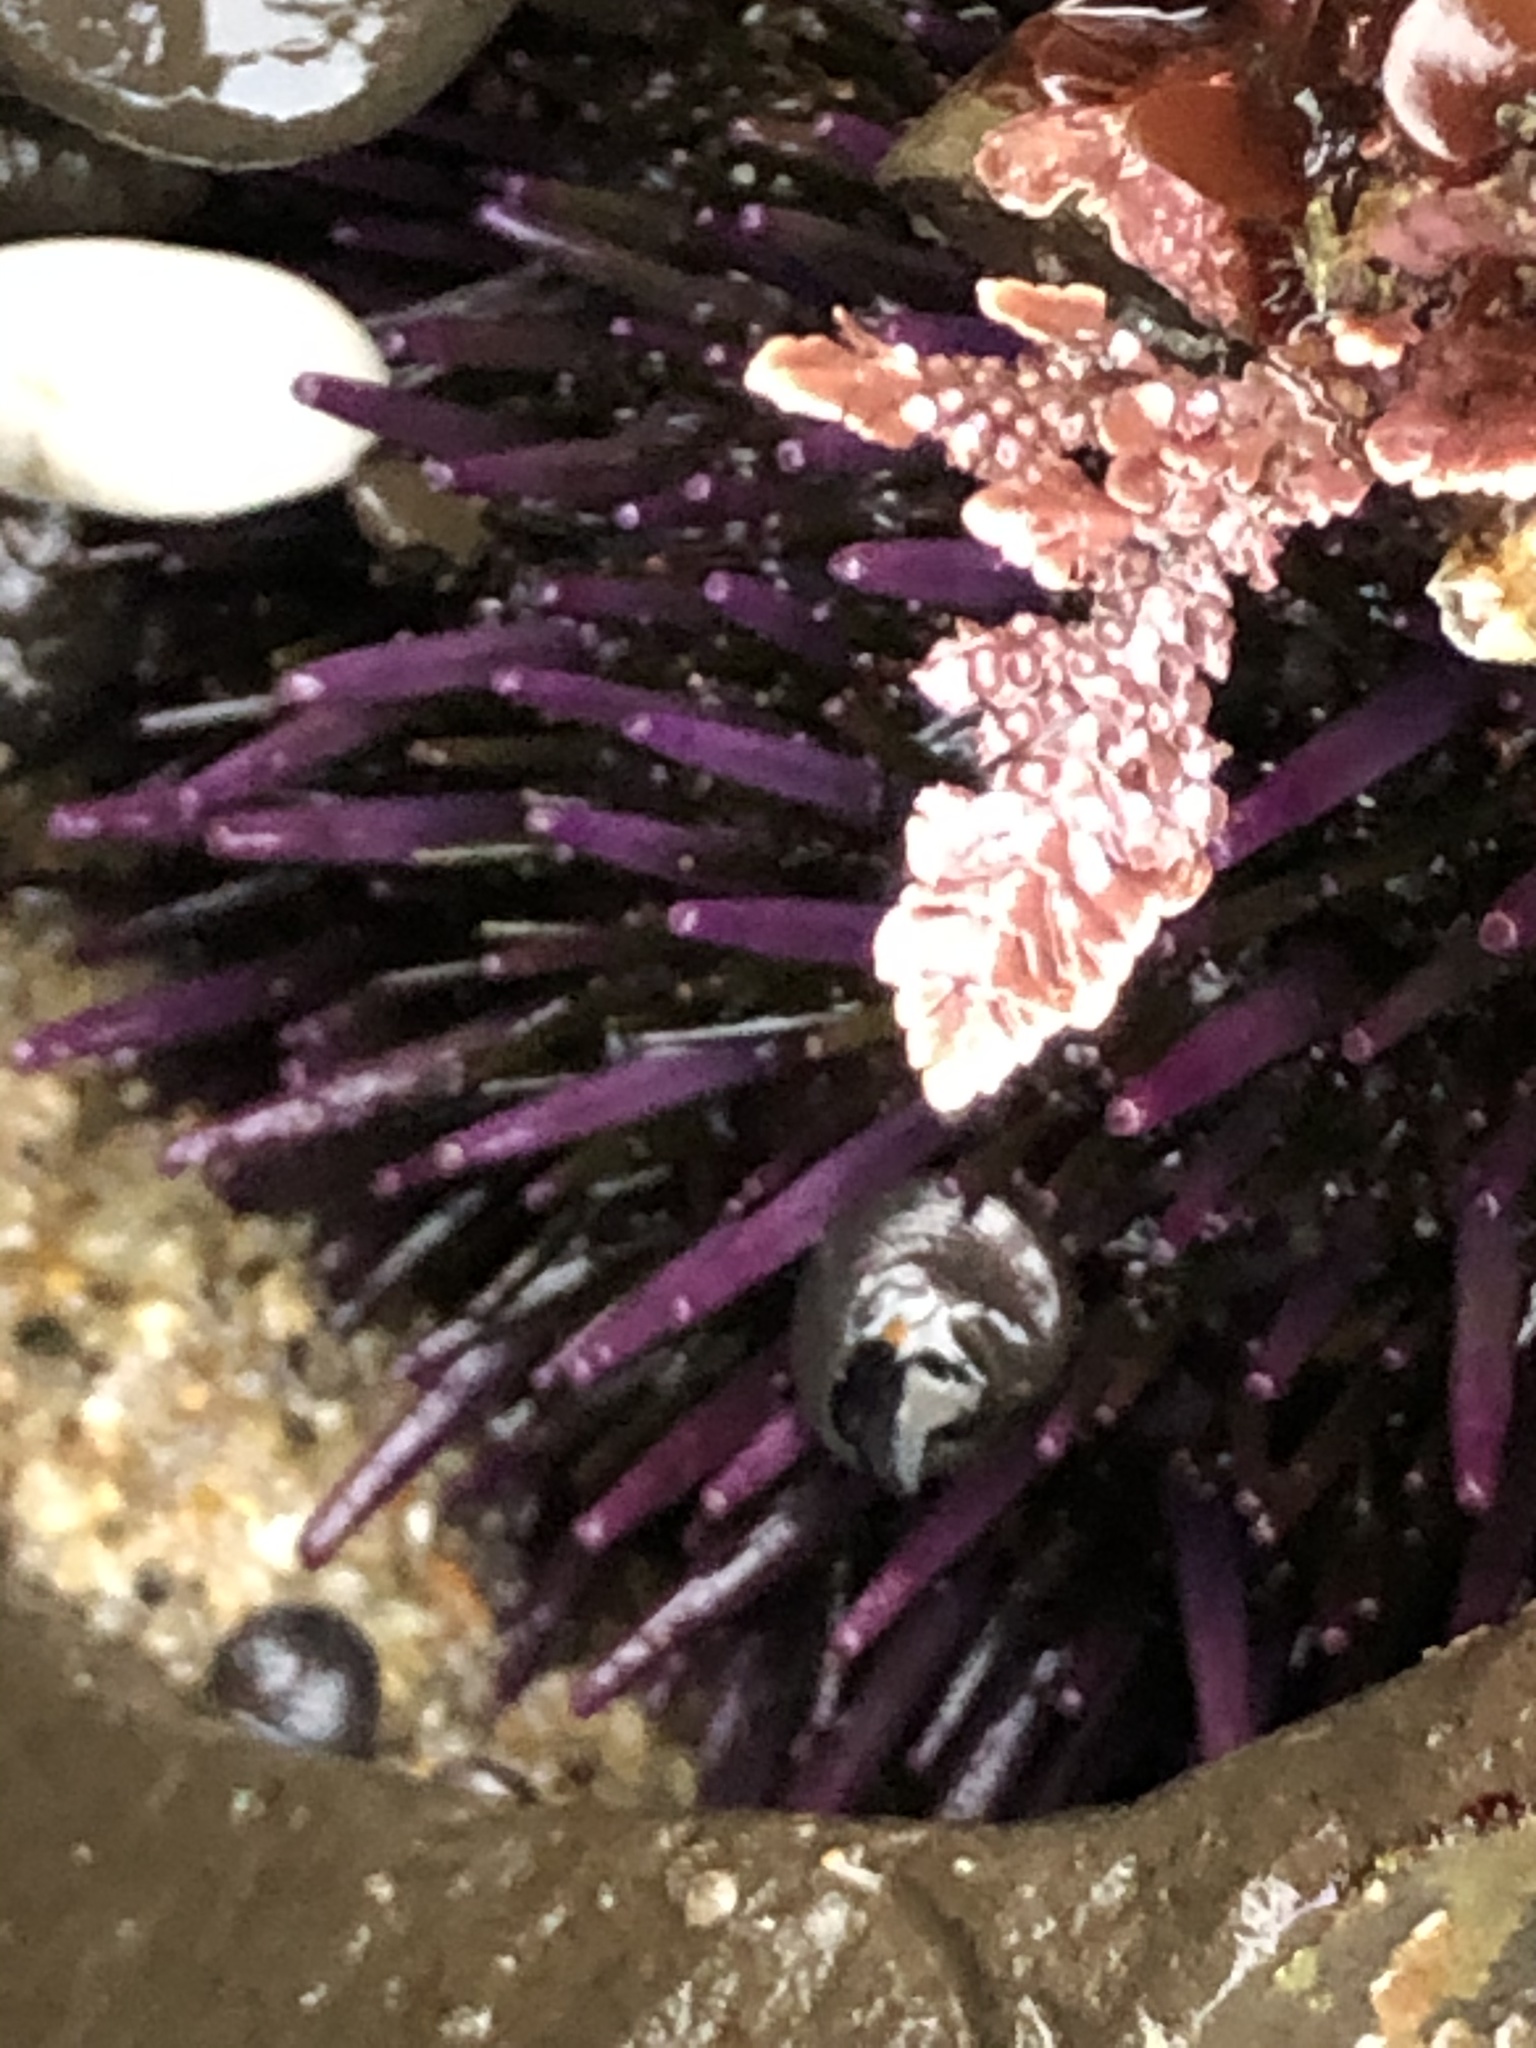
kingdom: Animalia
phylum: Echinodermata
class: Echinoidea
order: Camarodonta
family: Strongylocentrotidae
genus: Strongylocentrotus
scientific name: Strongylocentrotus purpuratus
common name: Purple sea urchin
